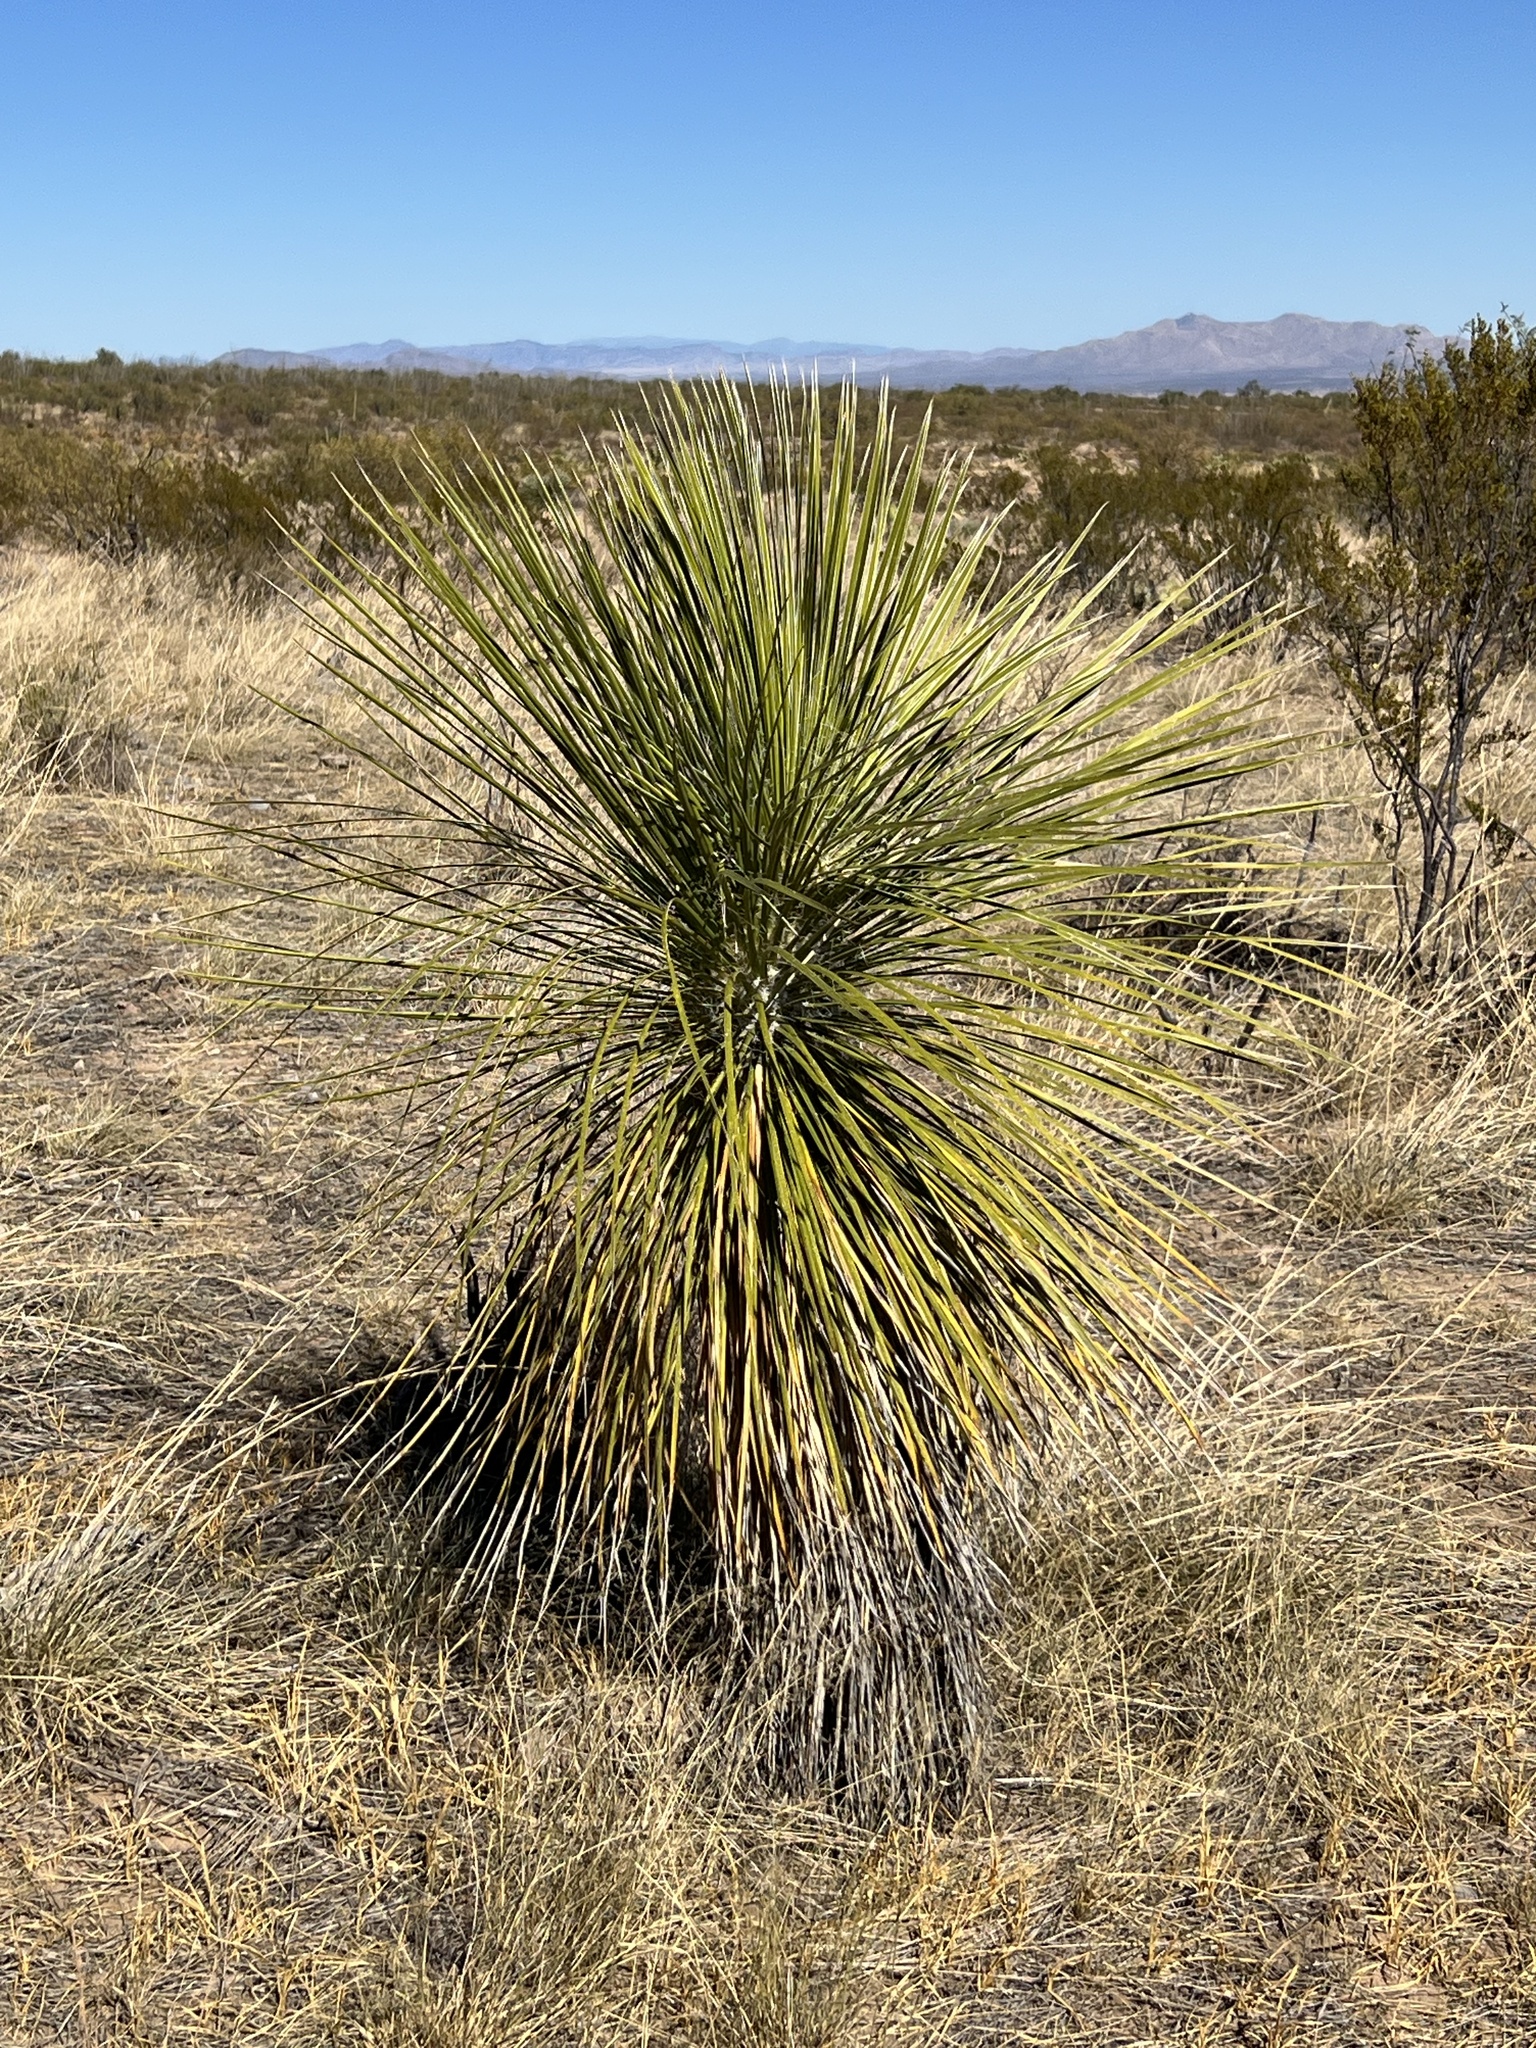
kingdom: Plantae
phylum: Tracheophyta
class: Liliopsida
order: Asparagales
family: Asparagaceae
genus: Yucca
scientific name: Yucca elata
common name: Palmella
